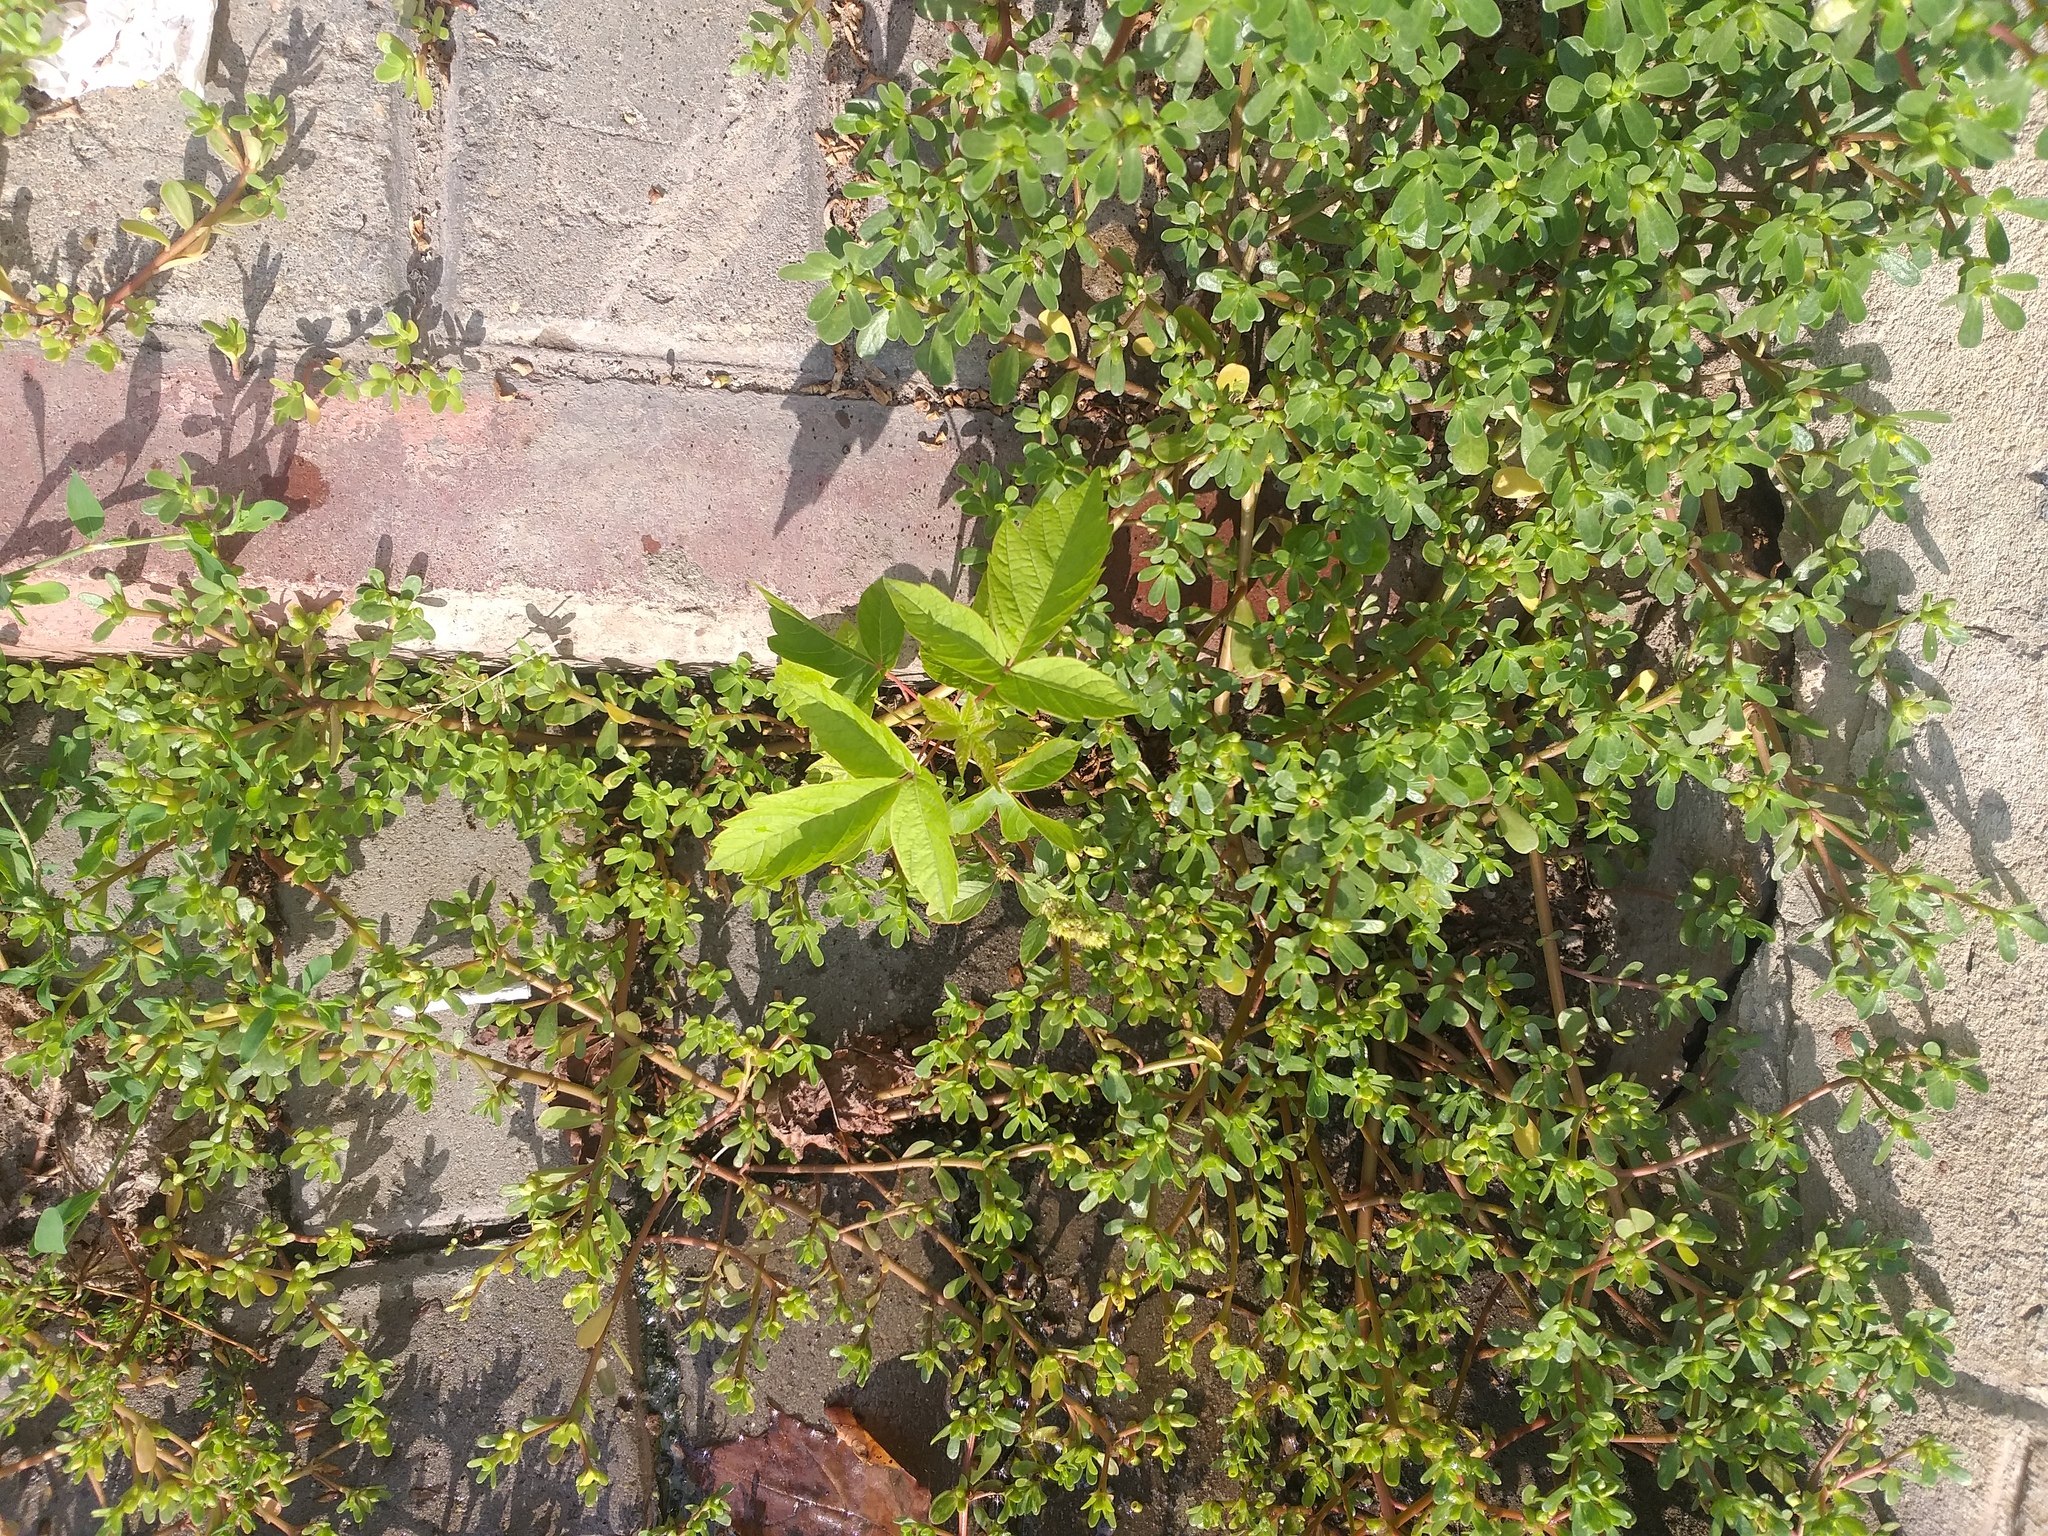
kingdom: Plantae
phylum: Tracheophyta
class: Magnoliopsida
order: Sapindales
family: Sapindaceae
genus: Acer
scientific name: Acer negundo
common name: Ashleaf maple
